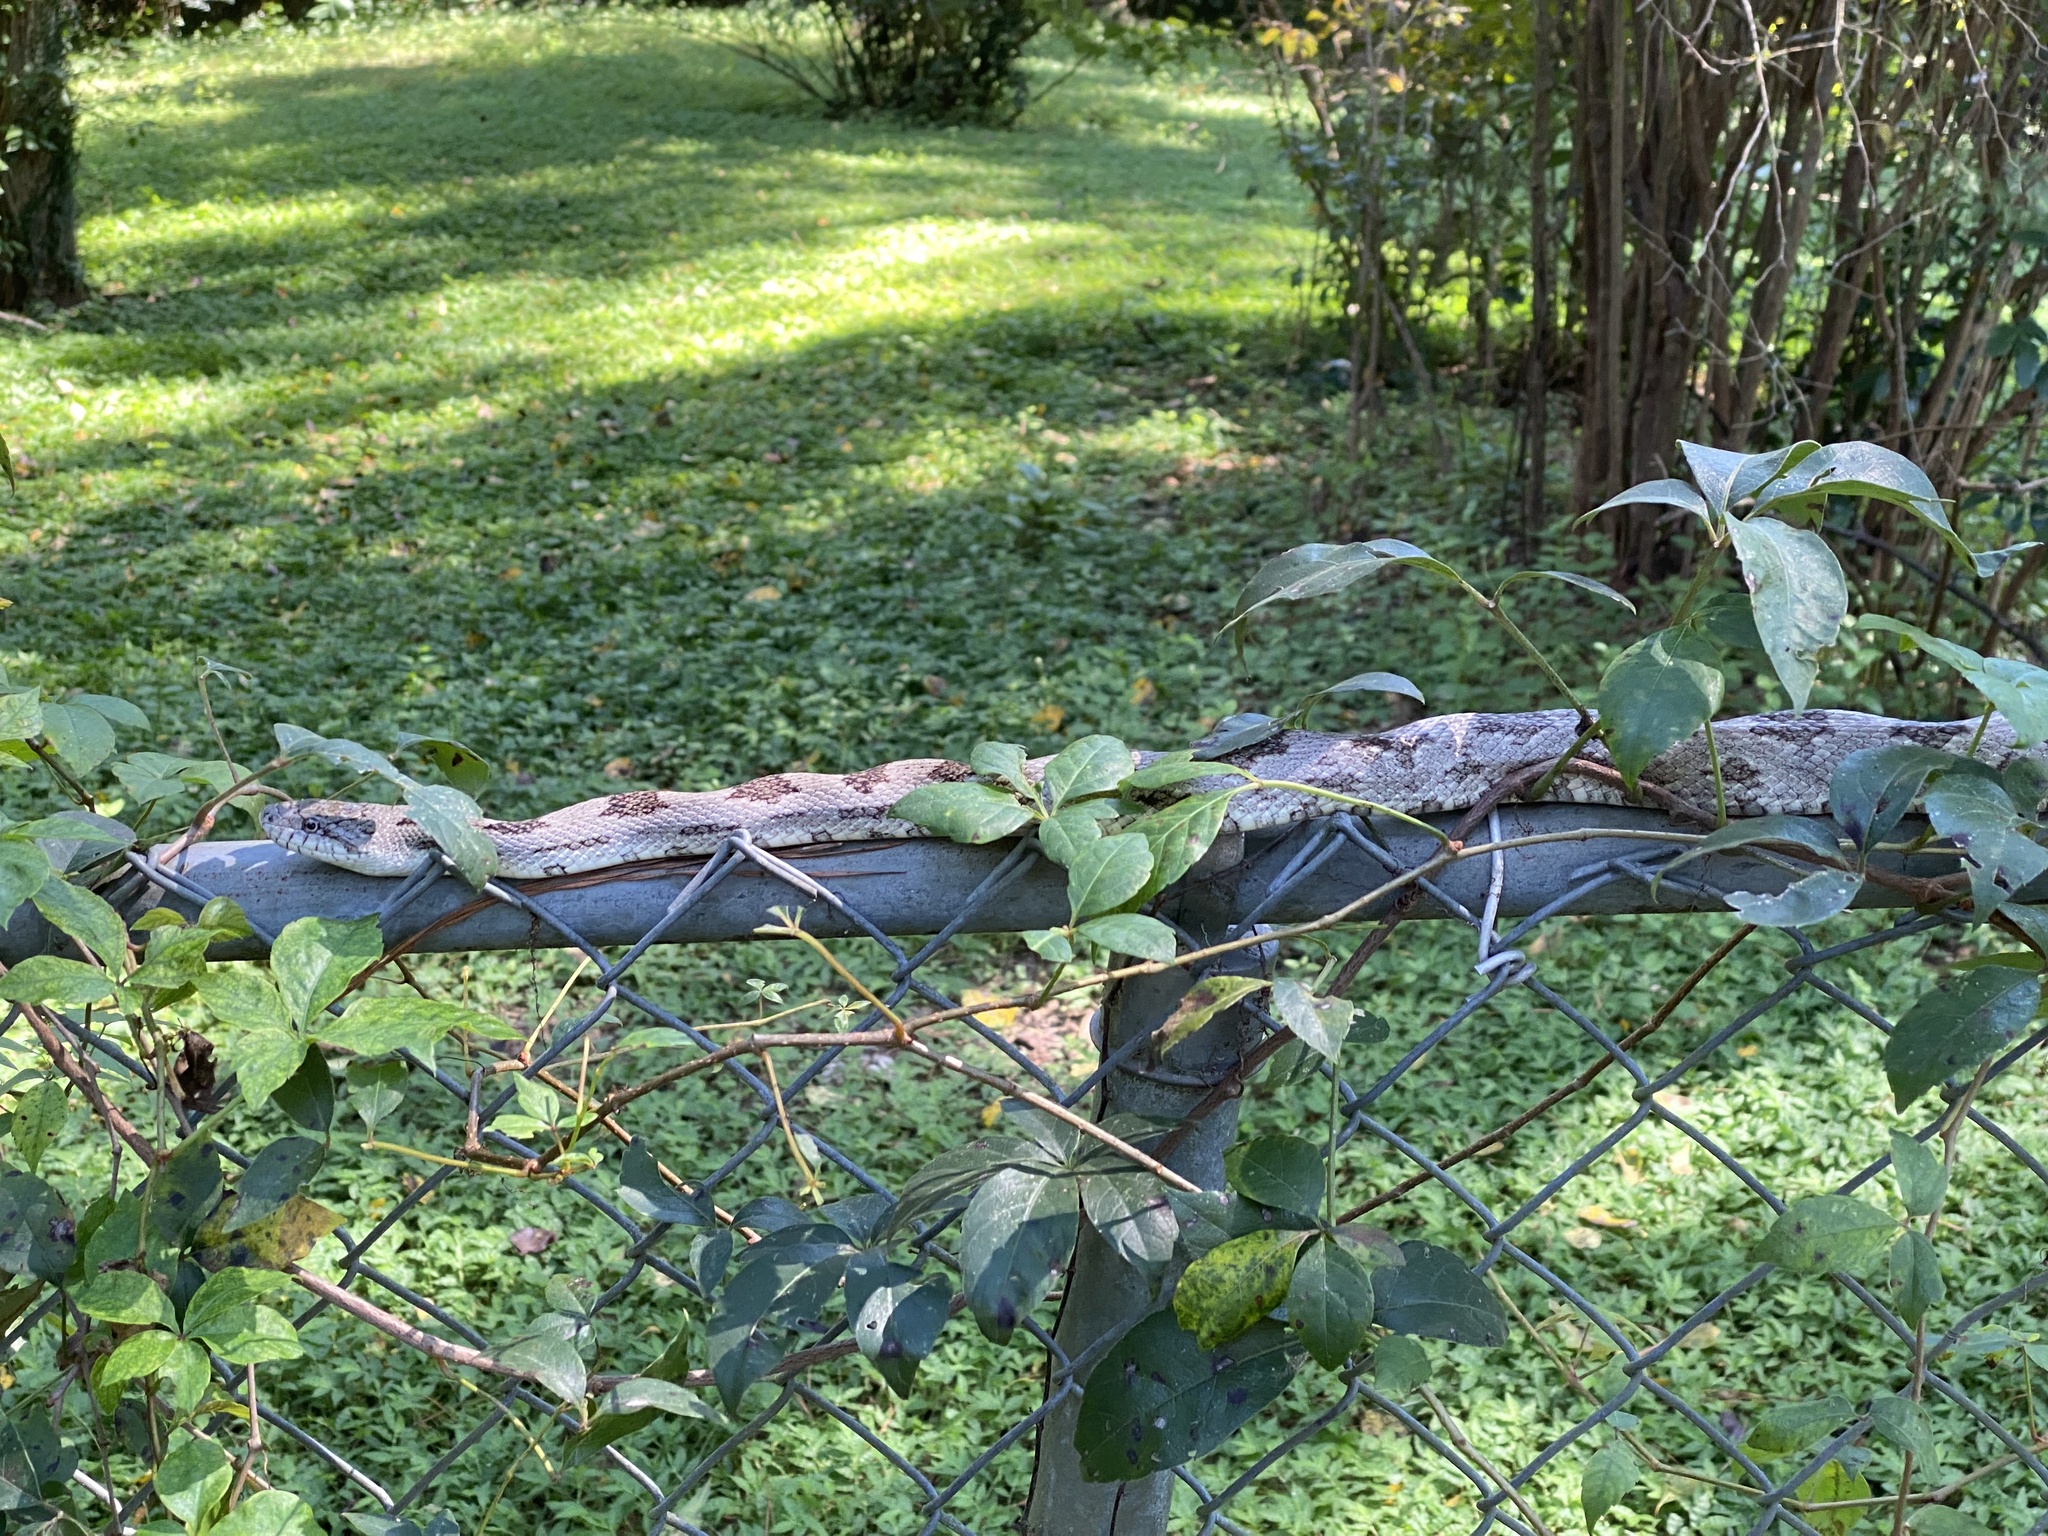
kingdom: Animalia
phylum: Chordata
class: Squamata
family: Colubridae
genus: Pantherophis
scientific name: Pantherophis
